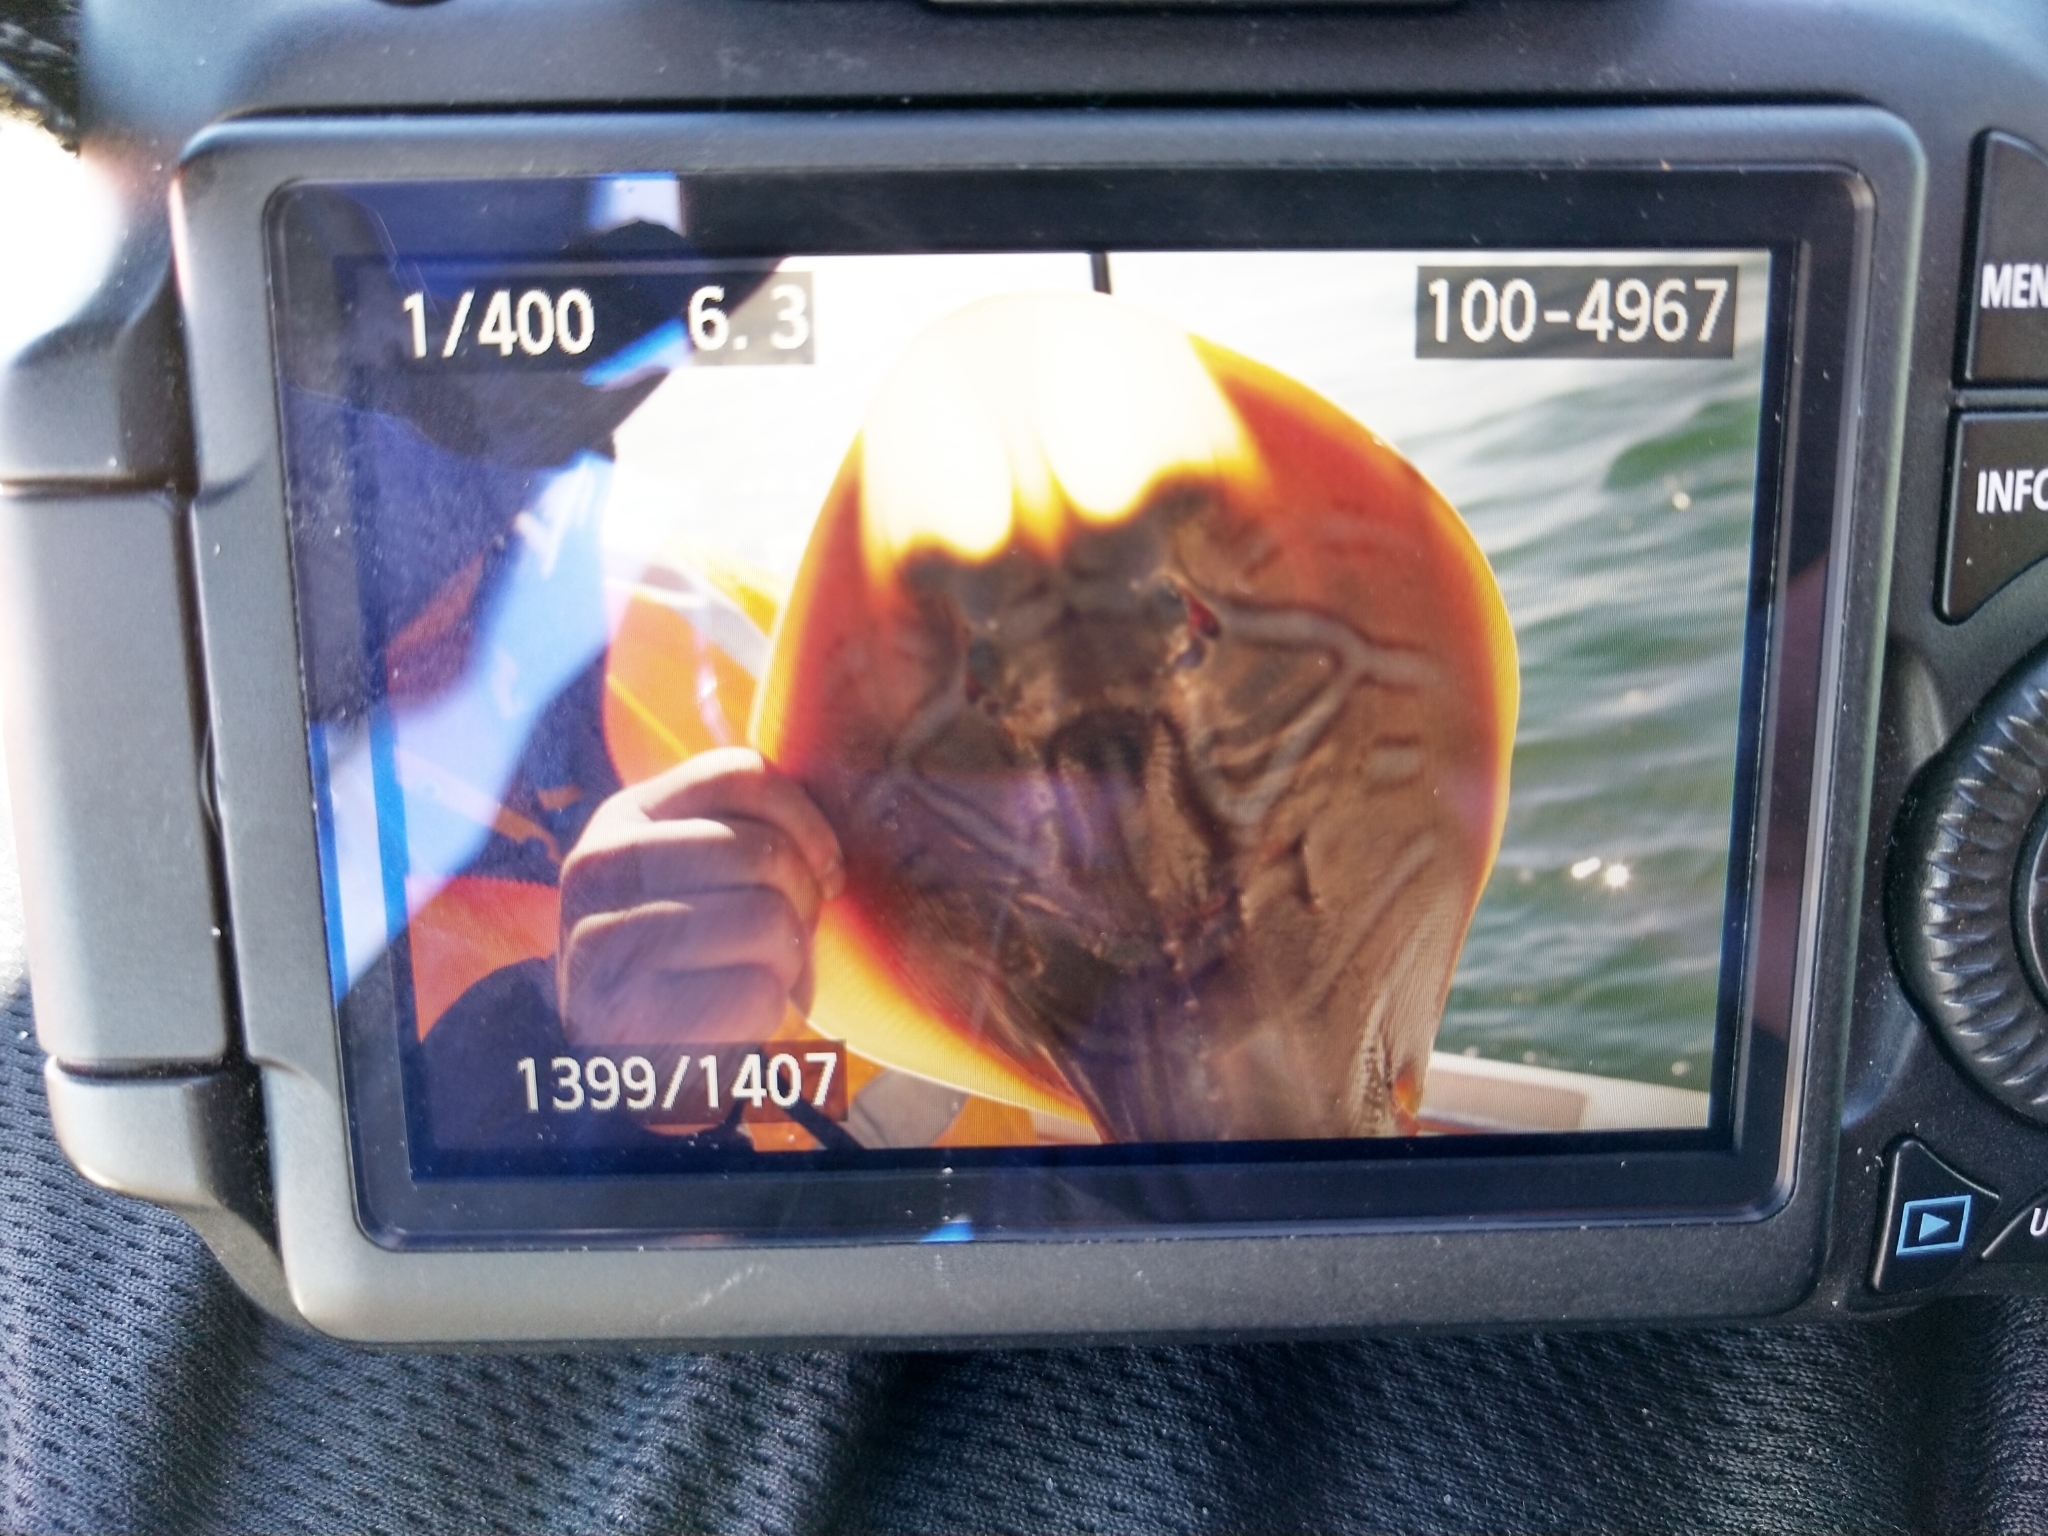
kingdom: Animalia
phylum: Chordata
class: Elasmobranchii
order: Rhinopristiformes
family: Rhinobatidae
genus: Trygonorrhina
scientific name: Trygonorrhina dumerilii
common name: Banjo shark
